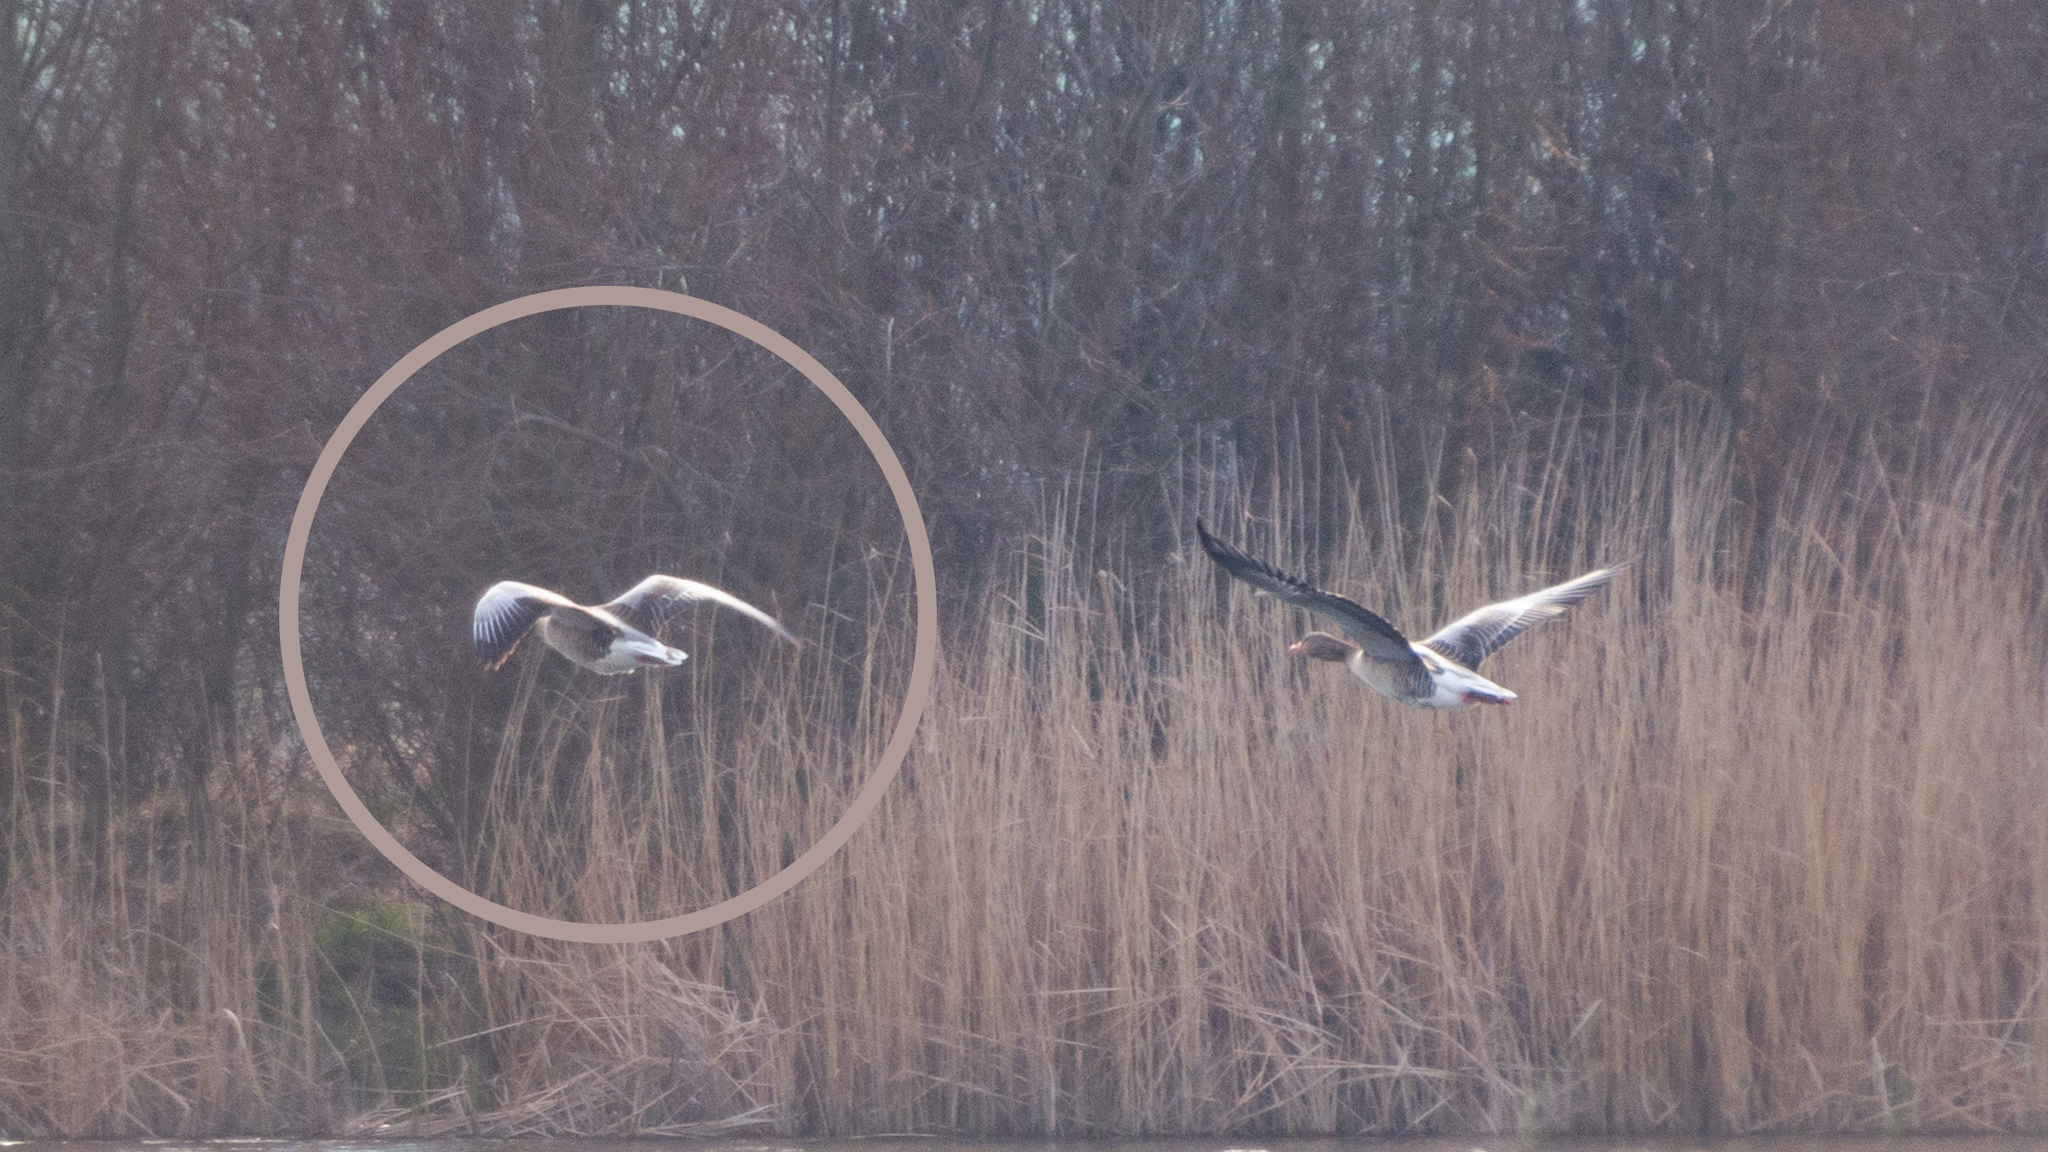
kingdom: Animalia
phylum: Chordata
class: Aves
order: Anseriformes
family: Anatidae
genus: Anser
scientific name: Anser anser
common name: Greylag goose
